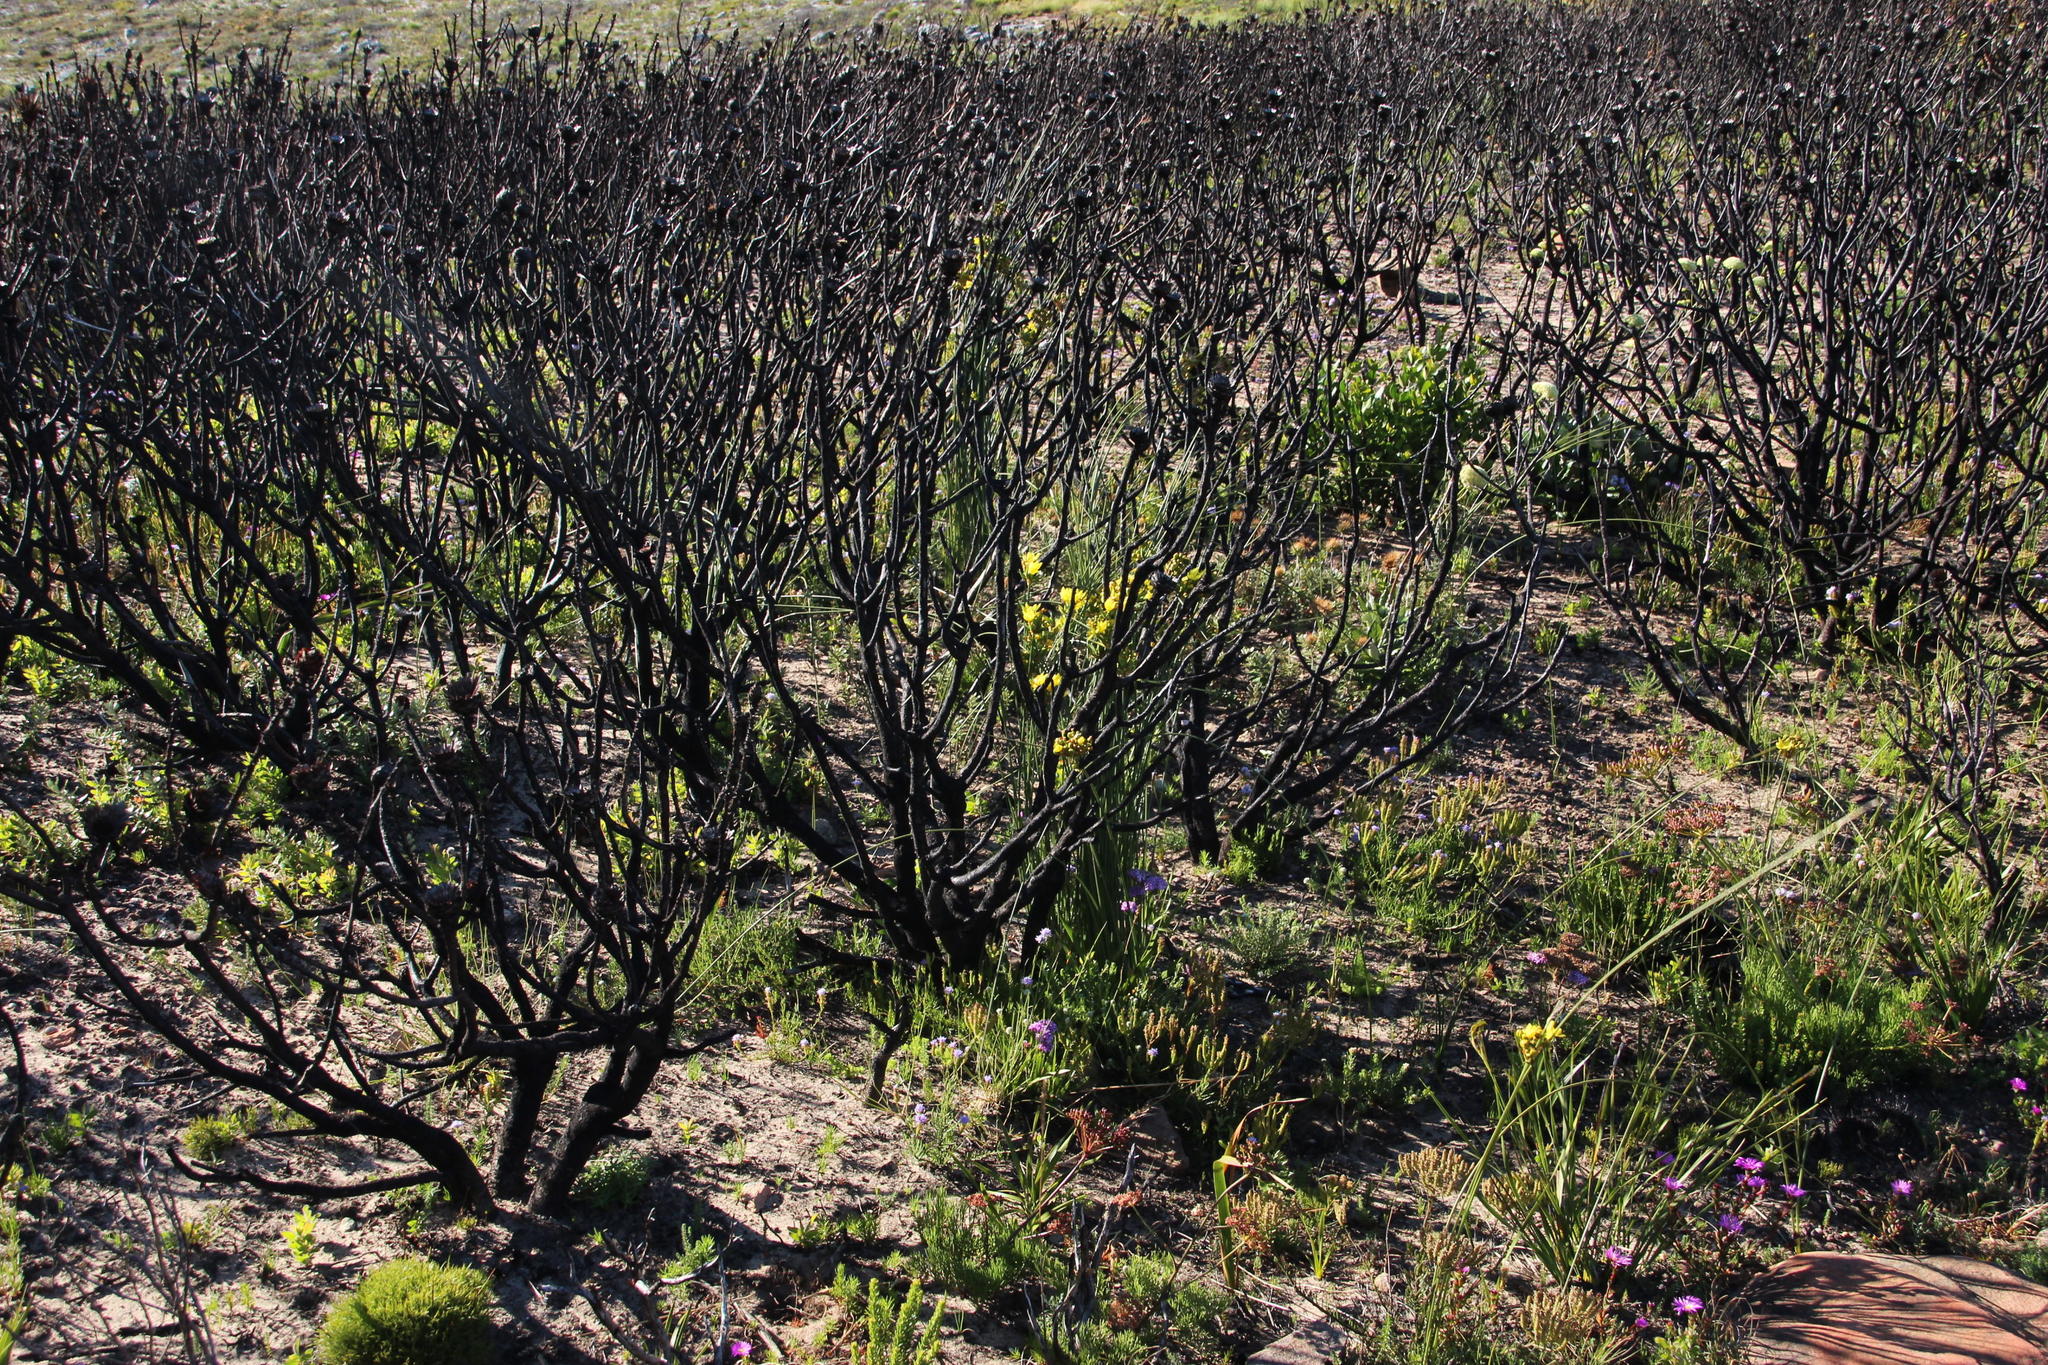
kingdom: Plantae
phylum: Tracheophyta
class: Liliopsida
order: Asparagales
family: Iridaceae
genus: Bobartia
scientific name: Bobartia indica
